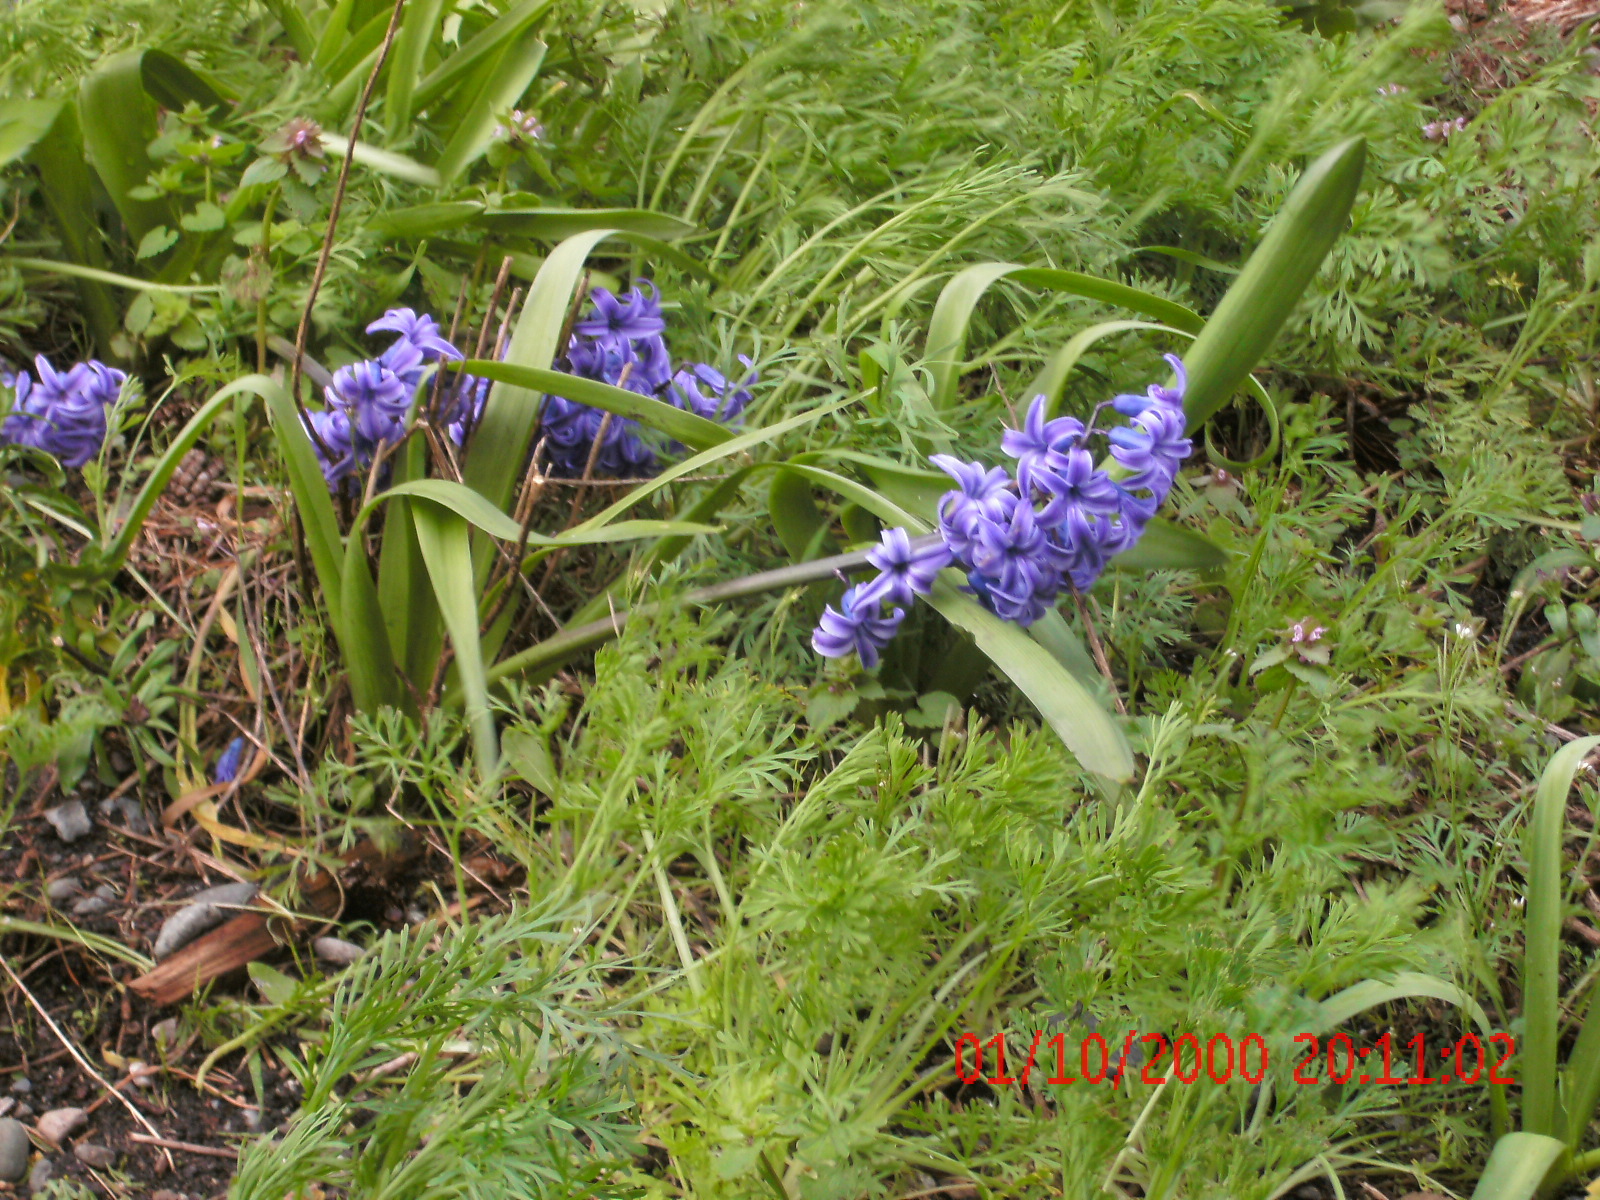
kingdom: Plantae
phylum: Tracheophyta
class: Liliopsida
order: Asparagales
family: Asparagaceae
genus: Hyacinthus
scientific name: Hyacinthus orientalis
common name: Hyacinth
